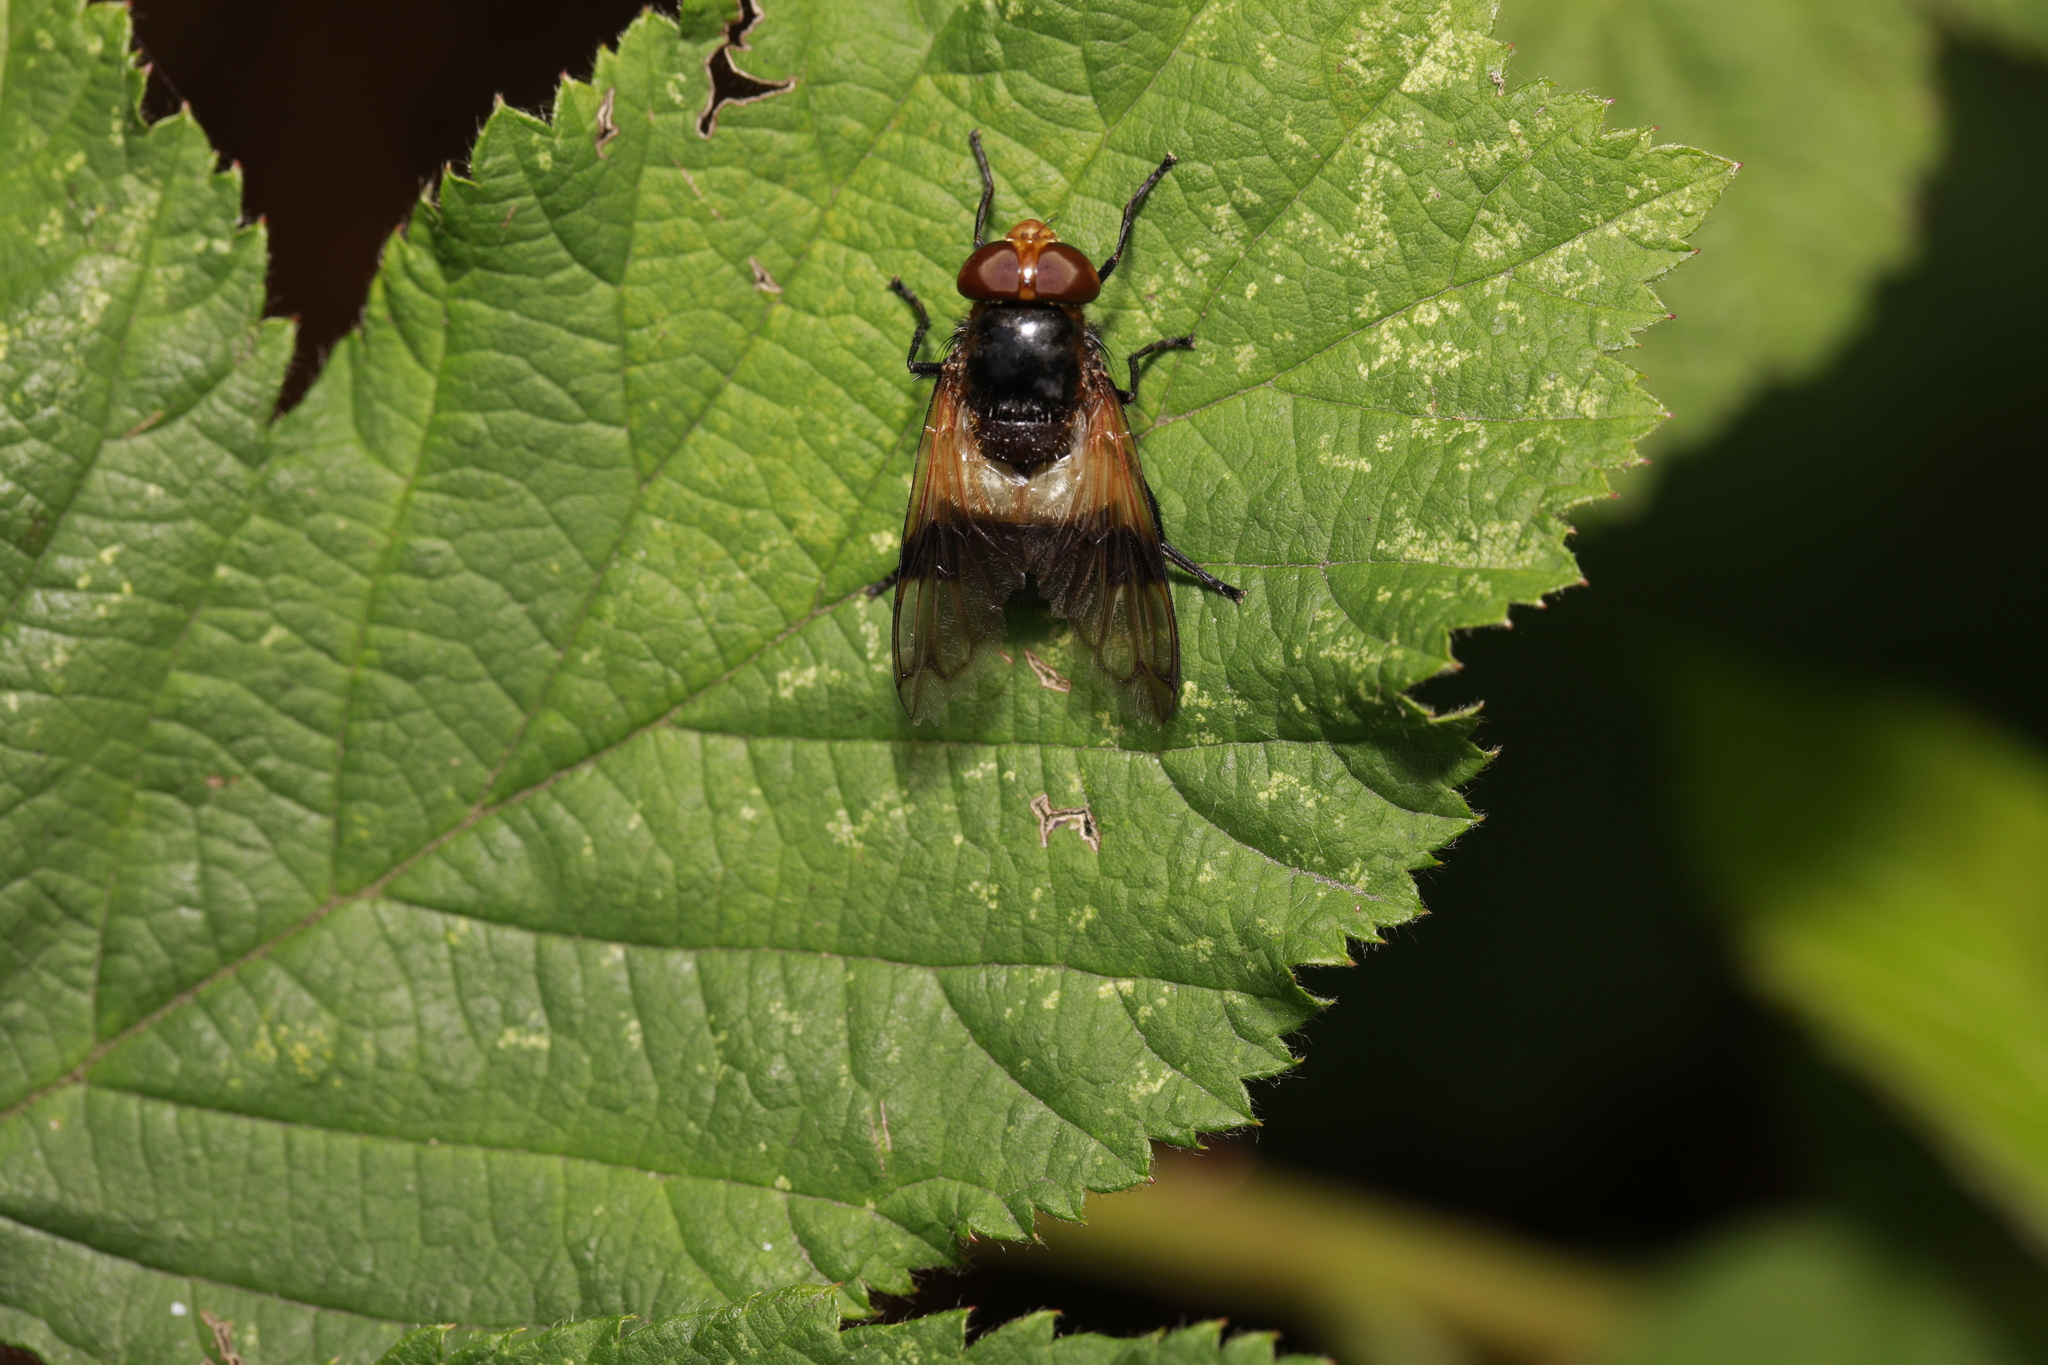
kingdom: Animalia
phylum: Arthropoda
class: Insecta
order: Diptera
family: Syrphidae
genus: Volucella
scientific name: Volucella pellucens
